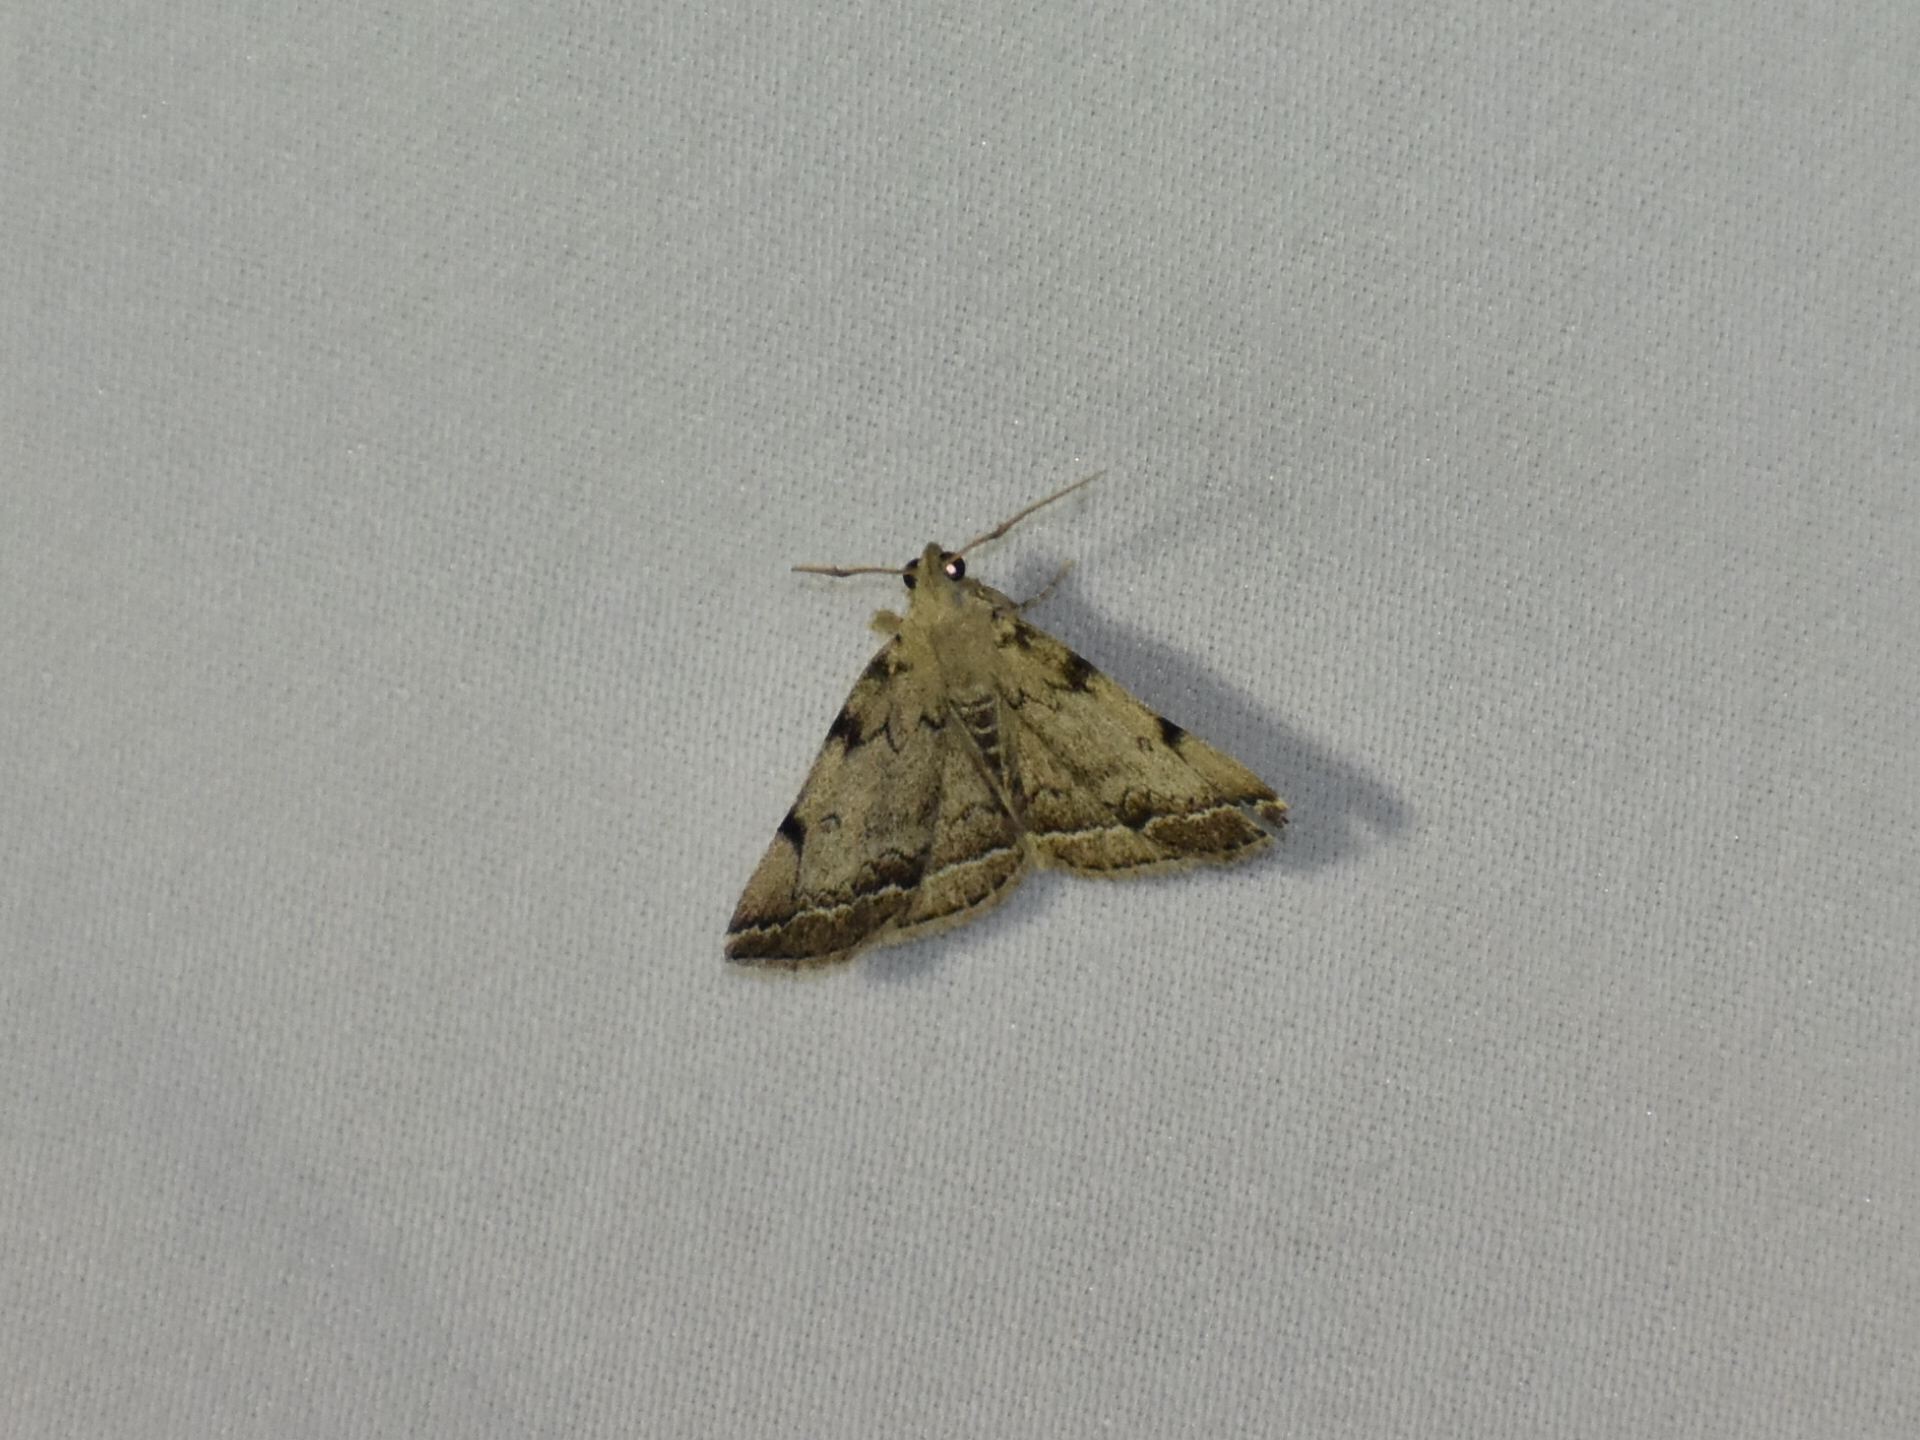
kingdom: Animalia
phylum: Arthropoda
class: Insecta
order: Lepidoptera
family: Erebidae
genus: Zanclognatha
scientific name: Zanclognatha theralis
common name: Flagged fan-foot
